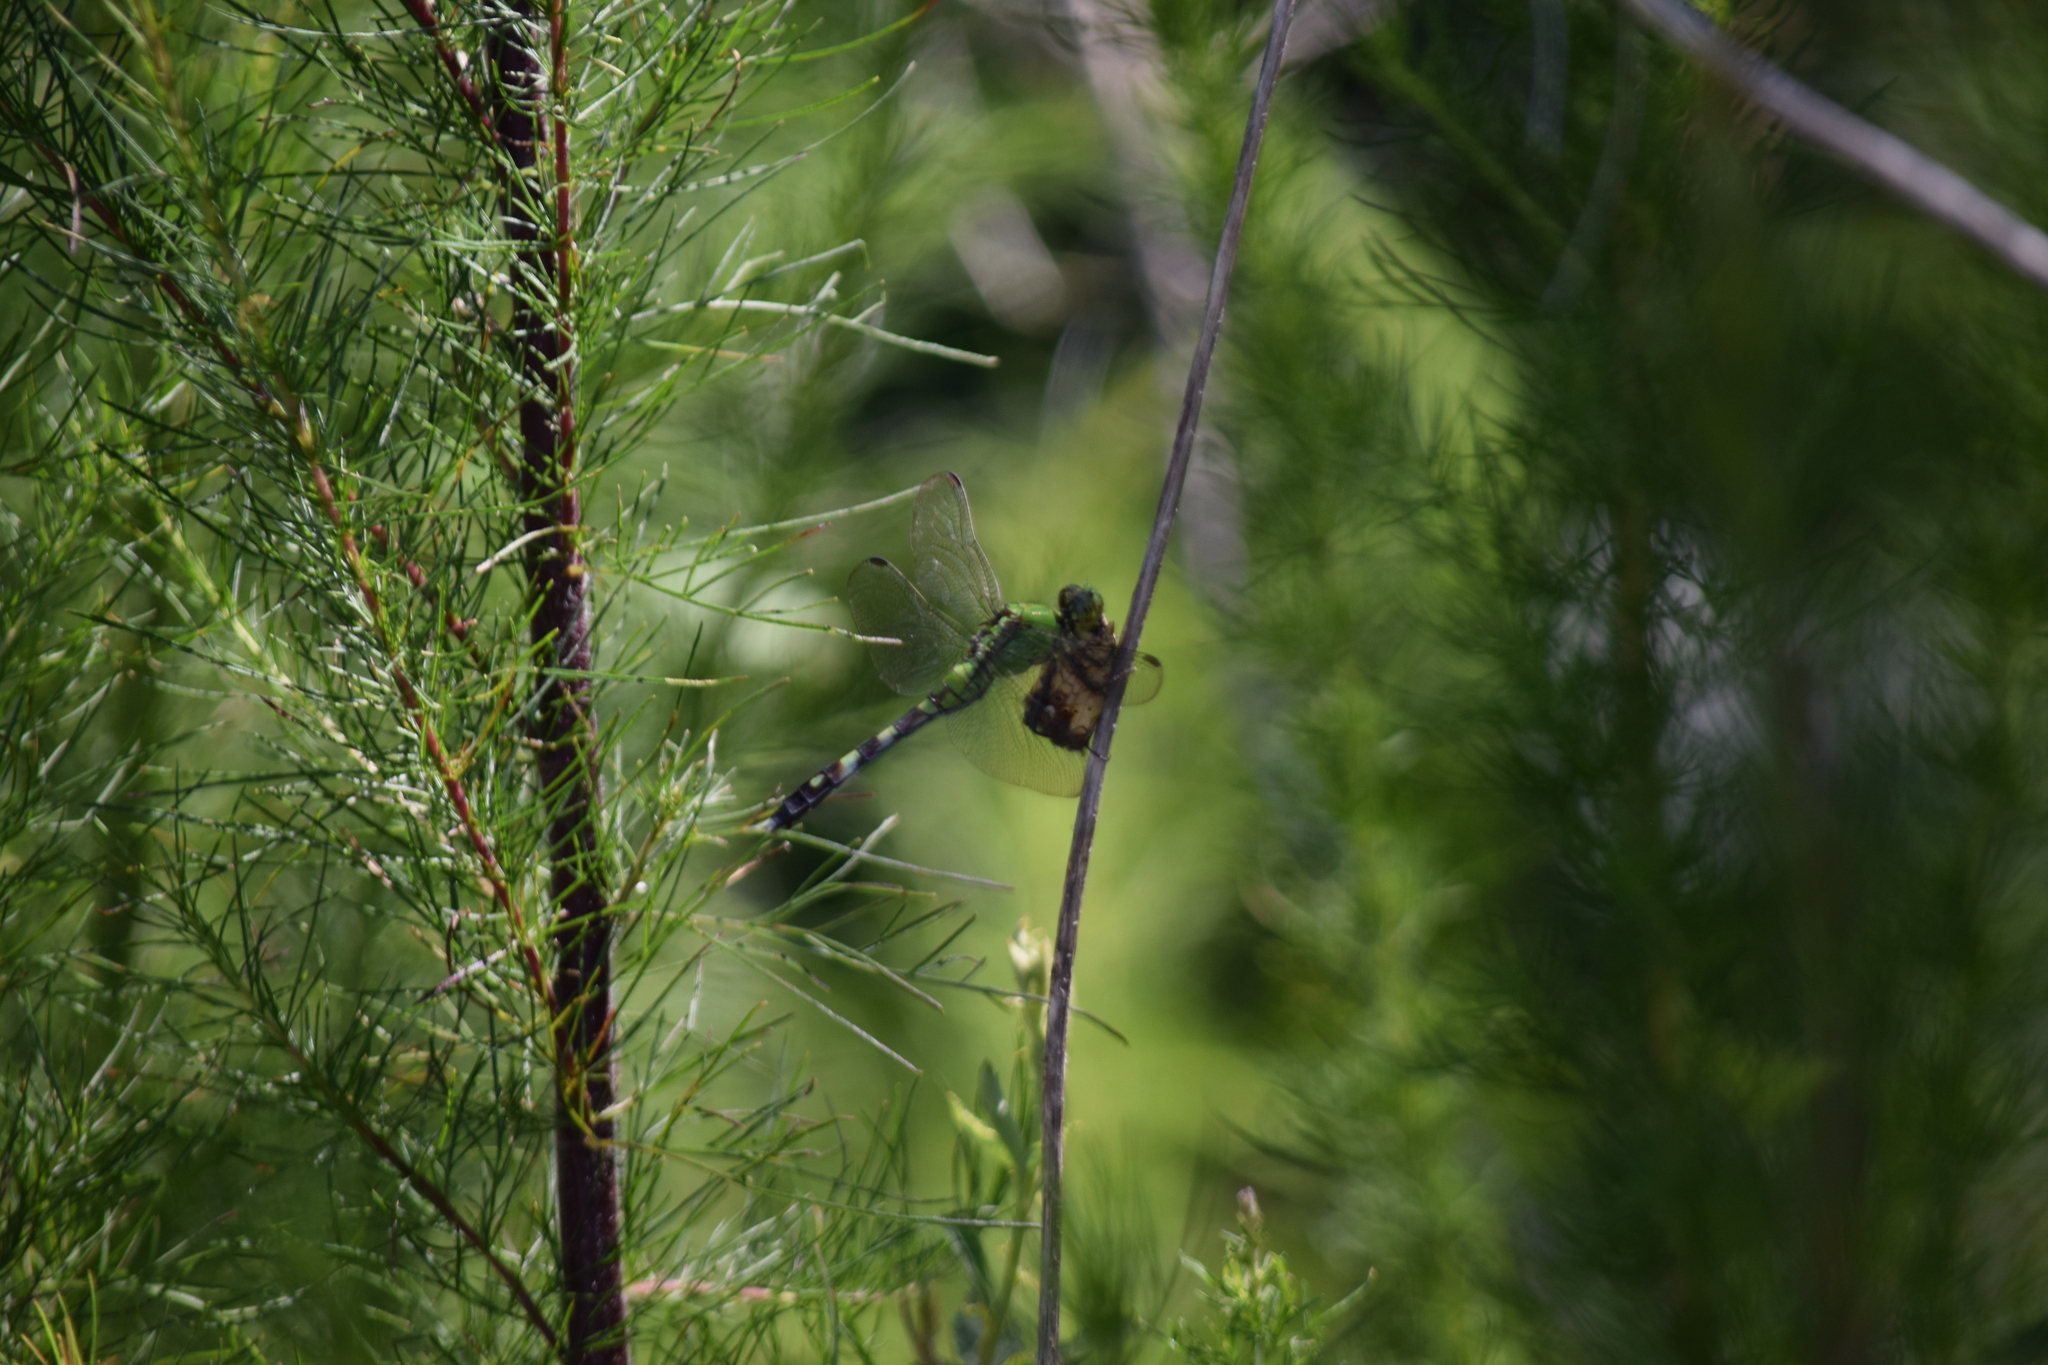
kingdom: Animalia
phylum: Arthropoda
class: Insecta
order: Odonata
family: Libellulidae
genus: Erythemis
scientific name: Erythemis simplicicollis
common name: Eastern pondhawk
